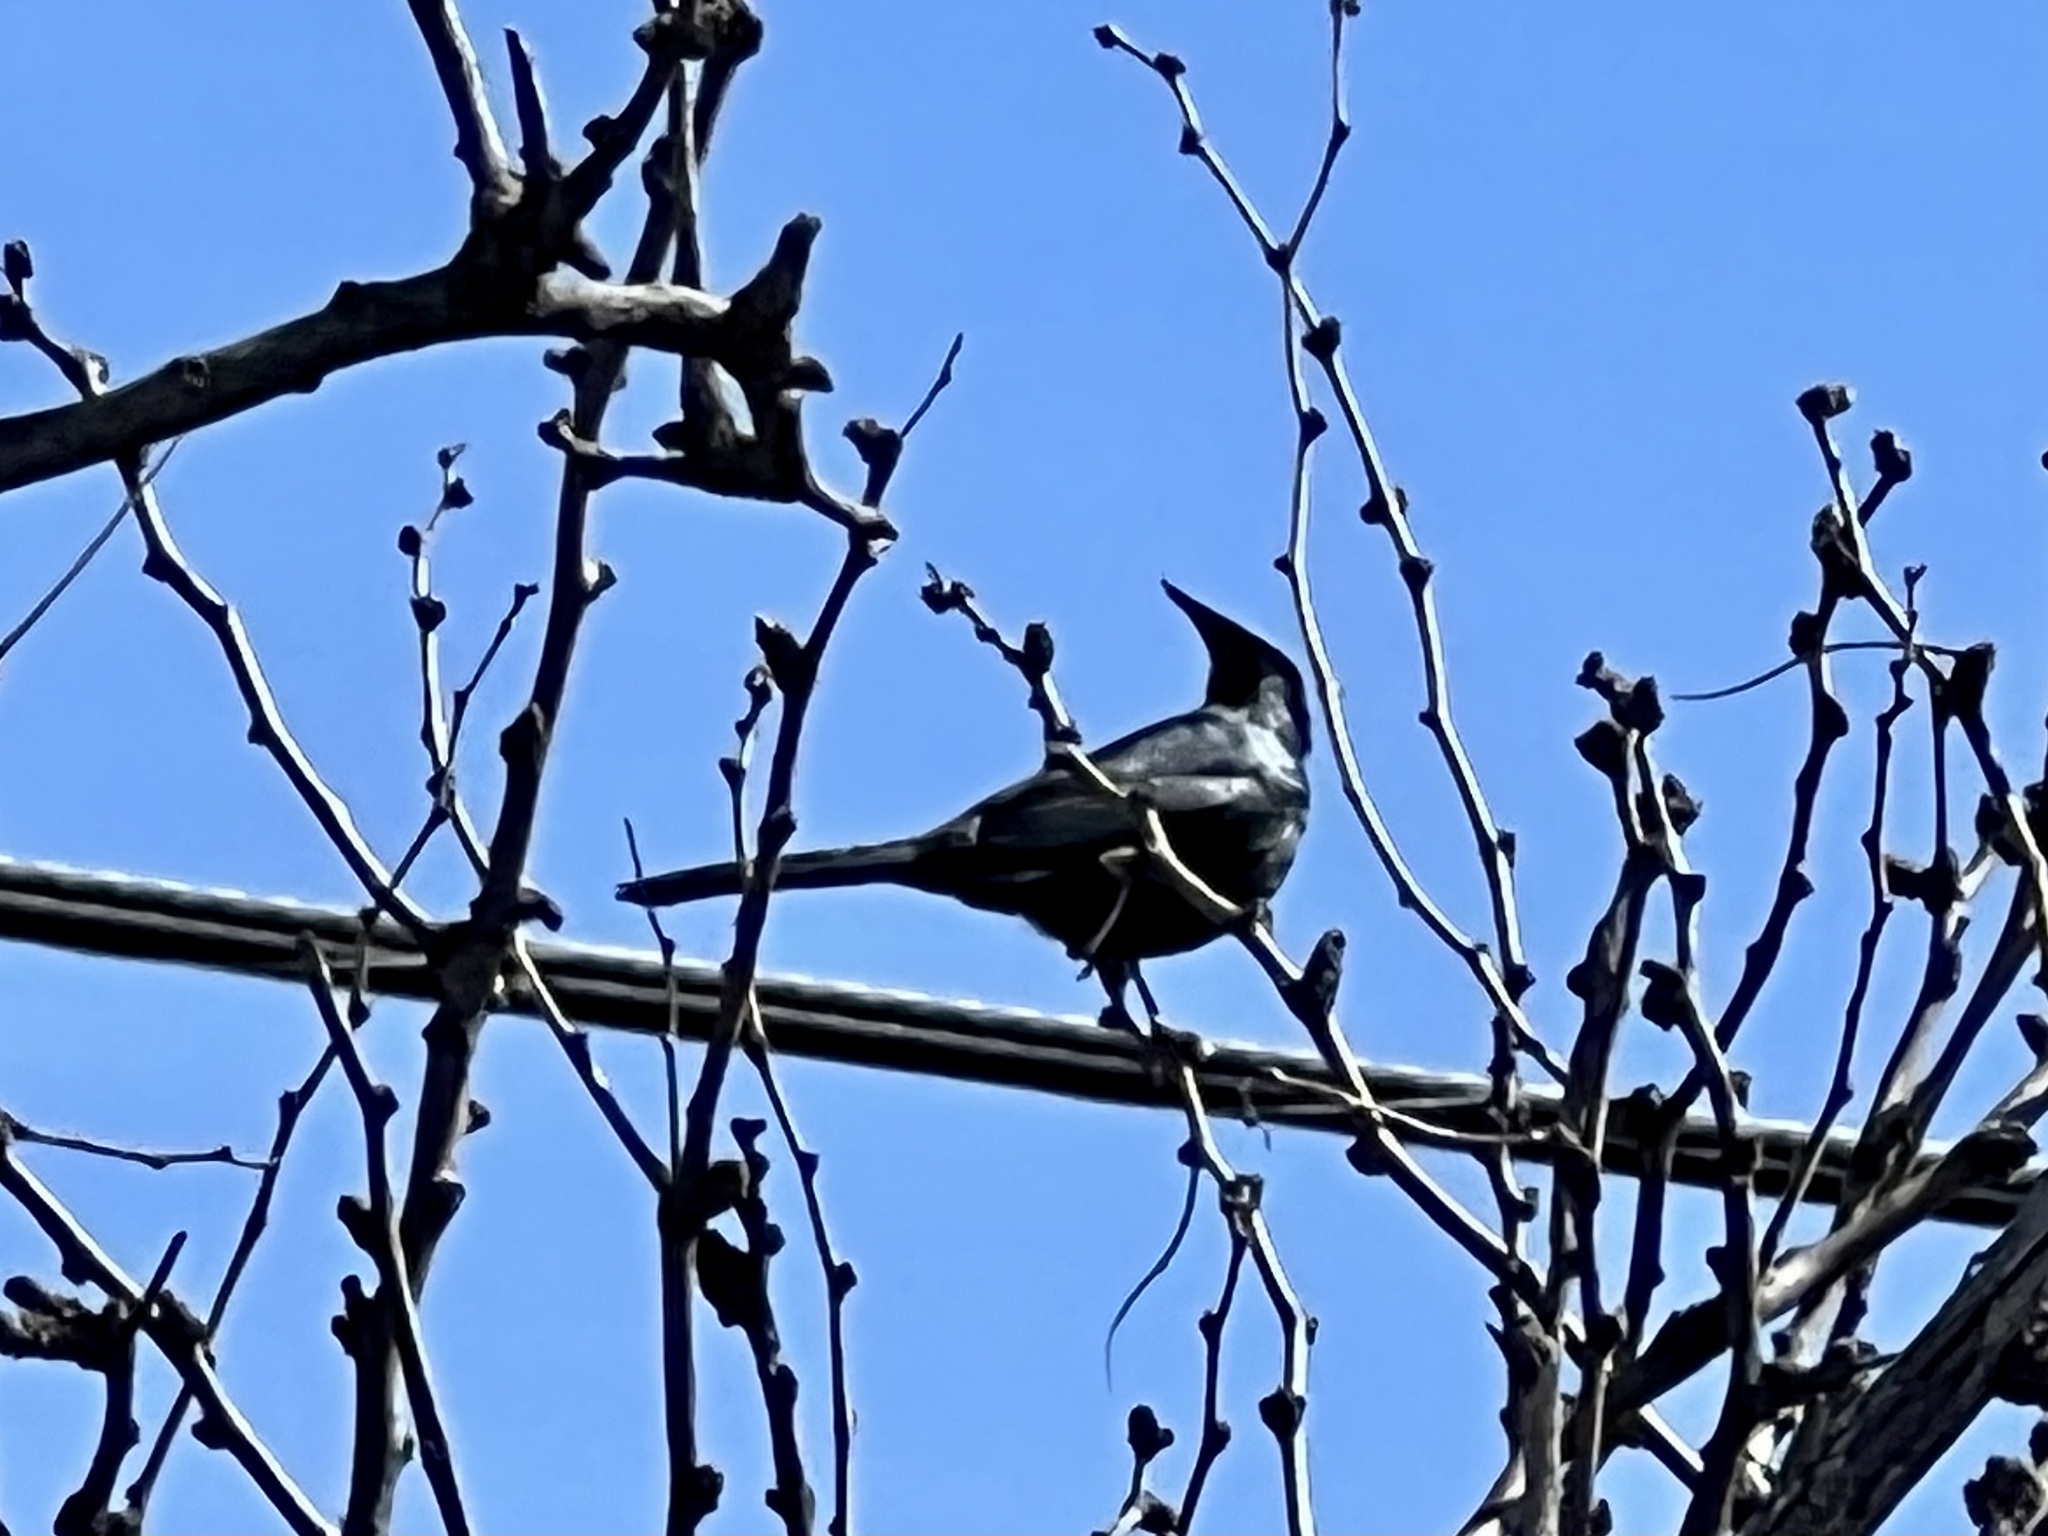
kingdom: Animalia
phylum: Chordata
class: Aves
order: Passeriformes
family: Ptilogonatidae
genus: Phainopepla
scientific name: Phainopepla nitens
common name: Phainopepla
